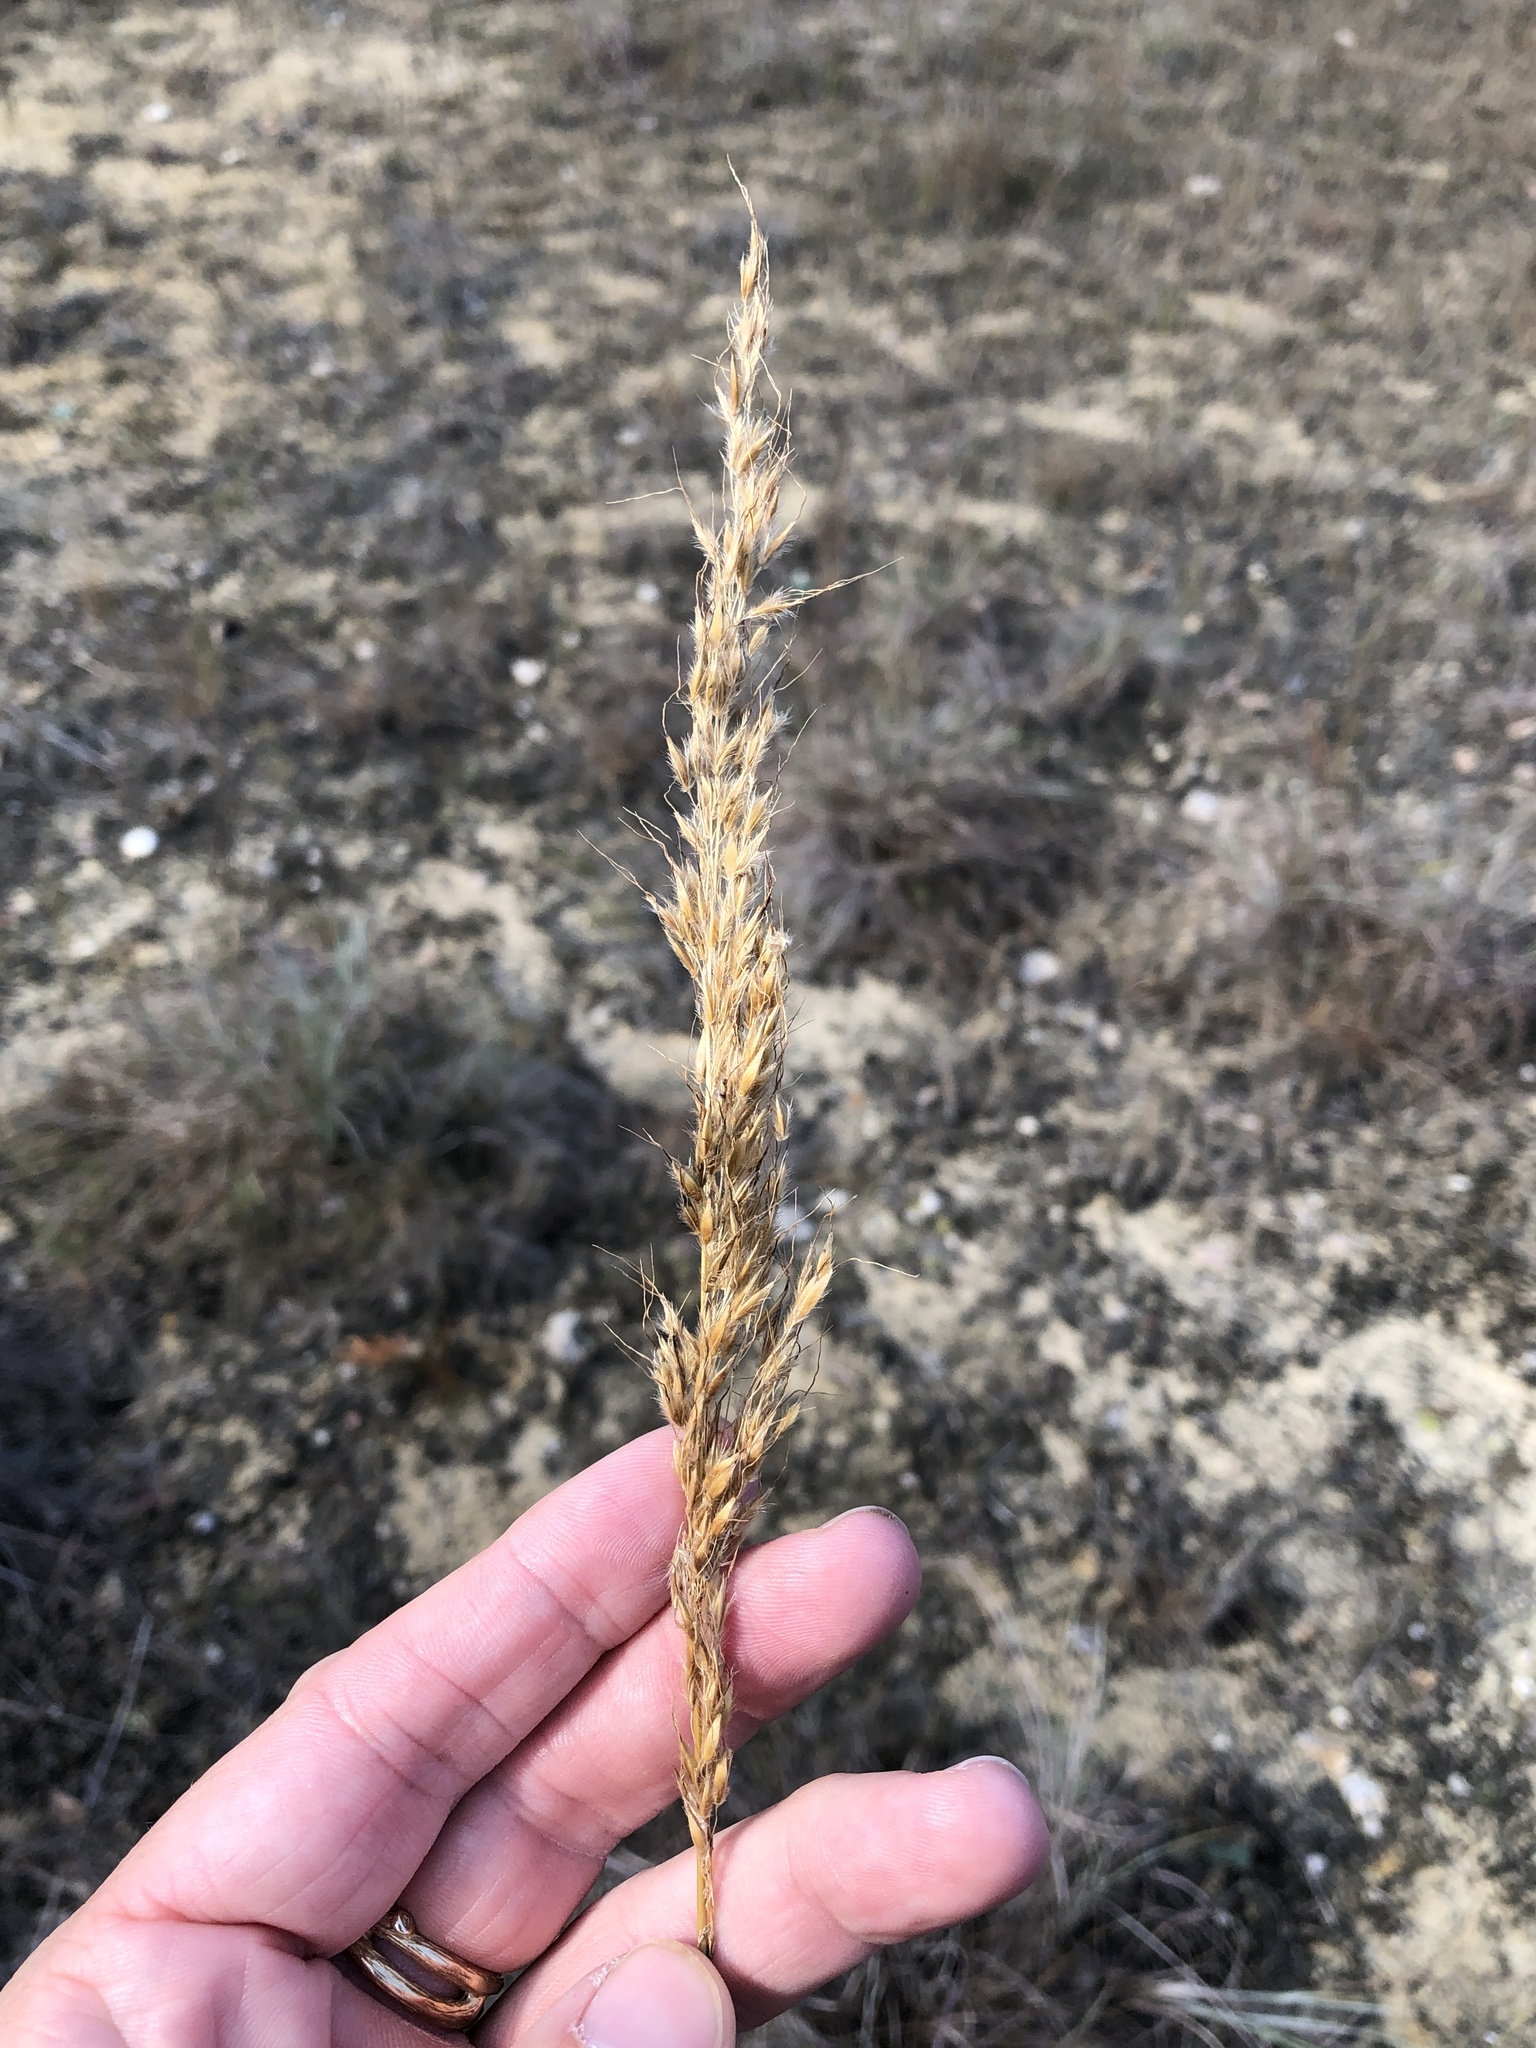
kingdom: Plantae
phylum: Tracheophyta
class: Liliopsida
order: Poales
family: Poaceae
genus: Sorghastrum
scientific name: Sorghastrum nutans
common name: Indian grass
